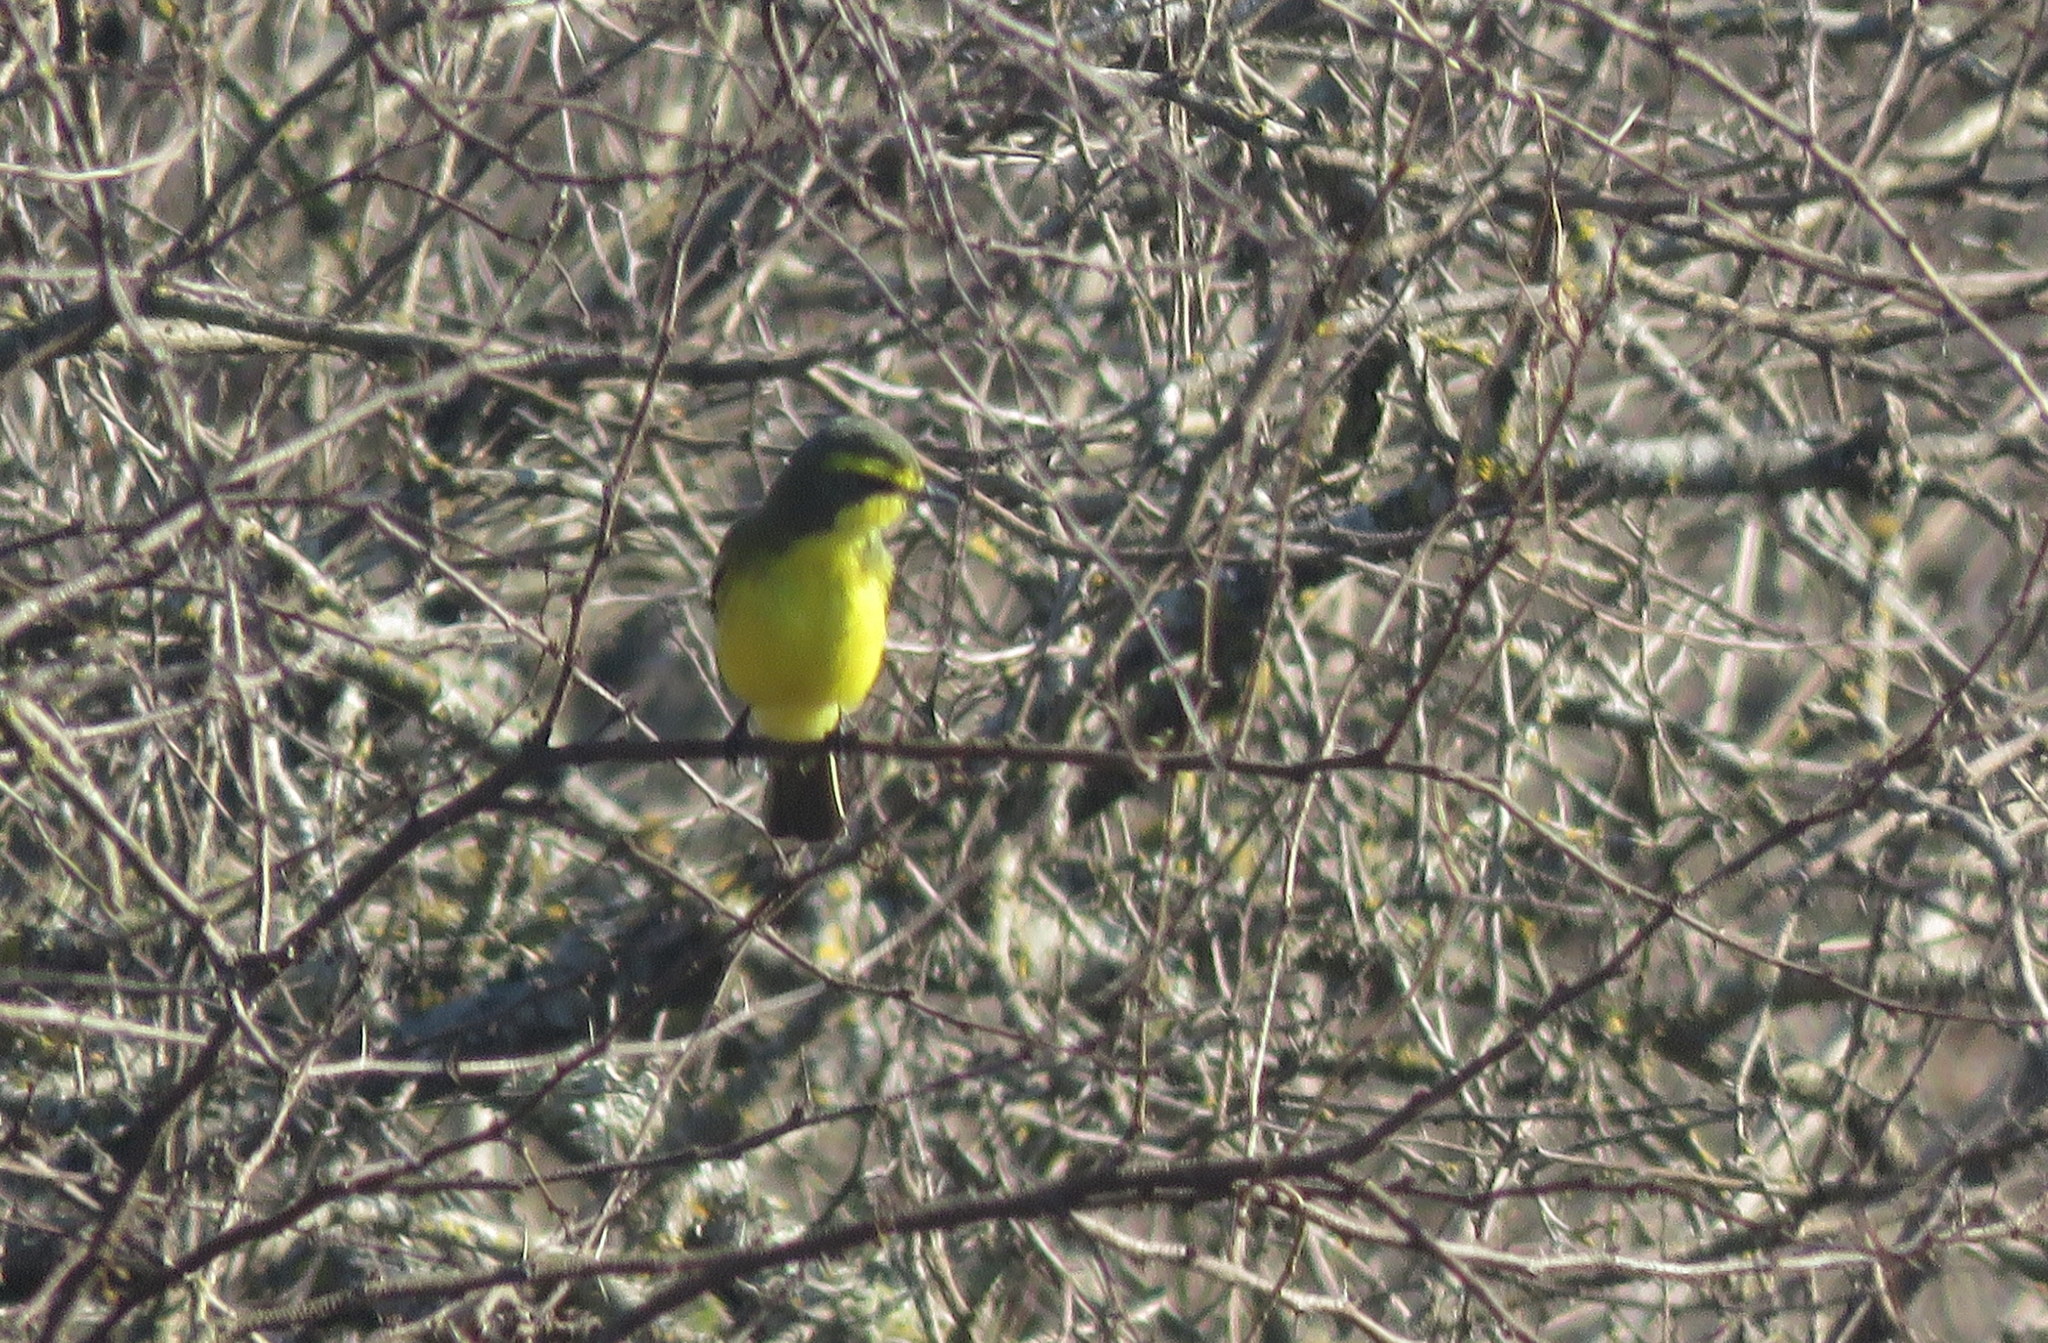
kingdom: Animalia
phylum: Chordata
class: Aves
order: Passeriformes
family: Tyrannidae
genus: Satrapa
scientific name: Satrapa icterophrys
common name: Yellow-browed tyrant
